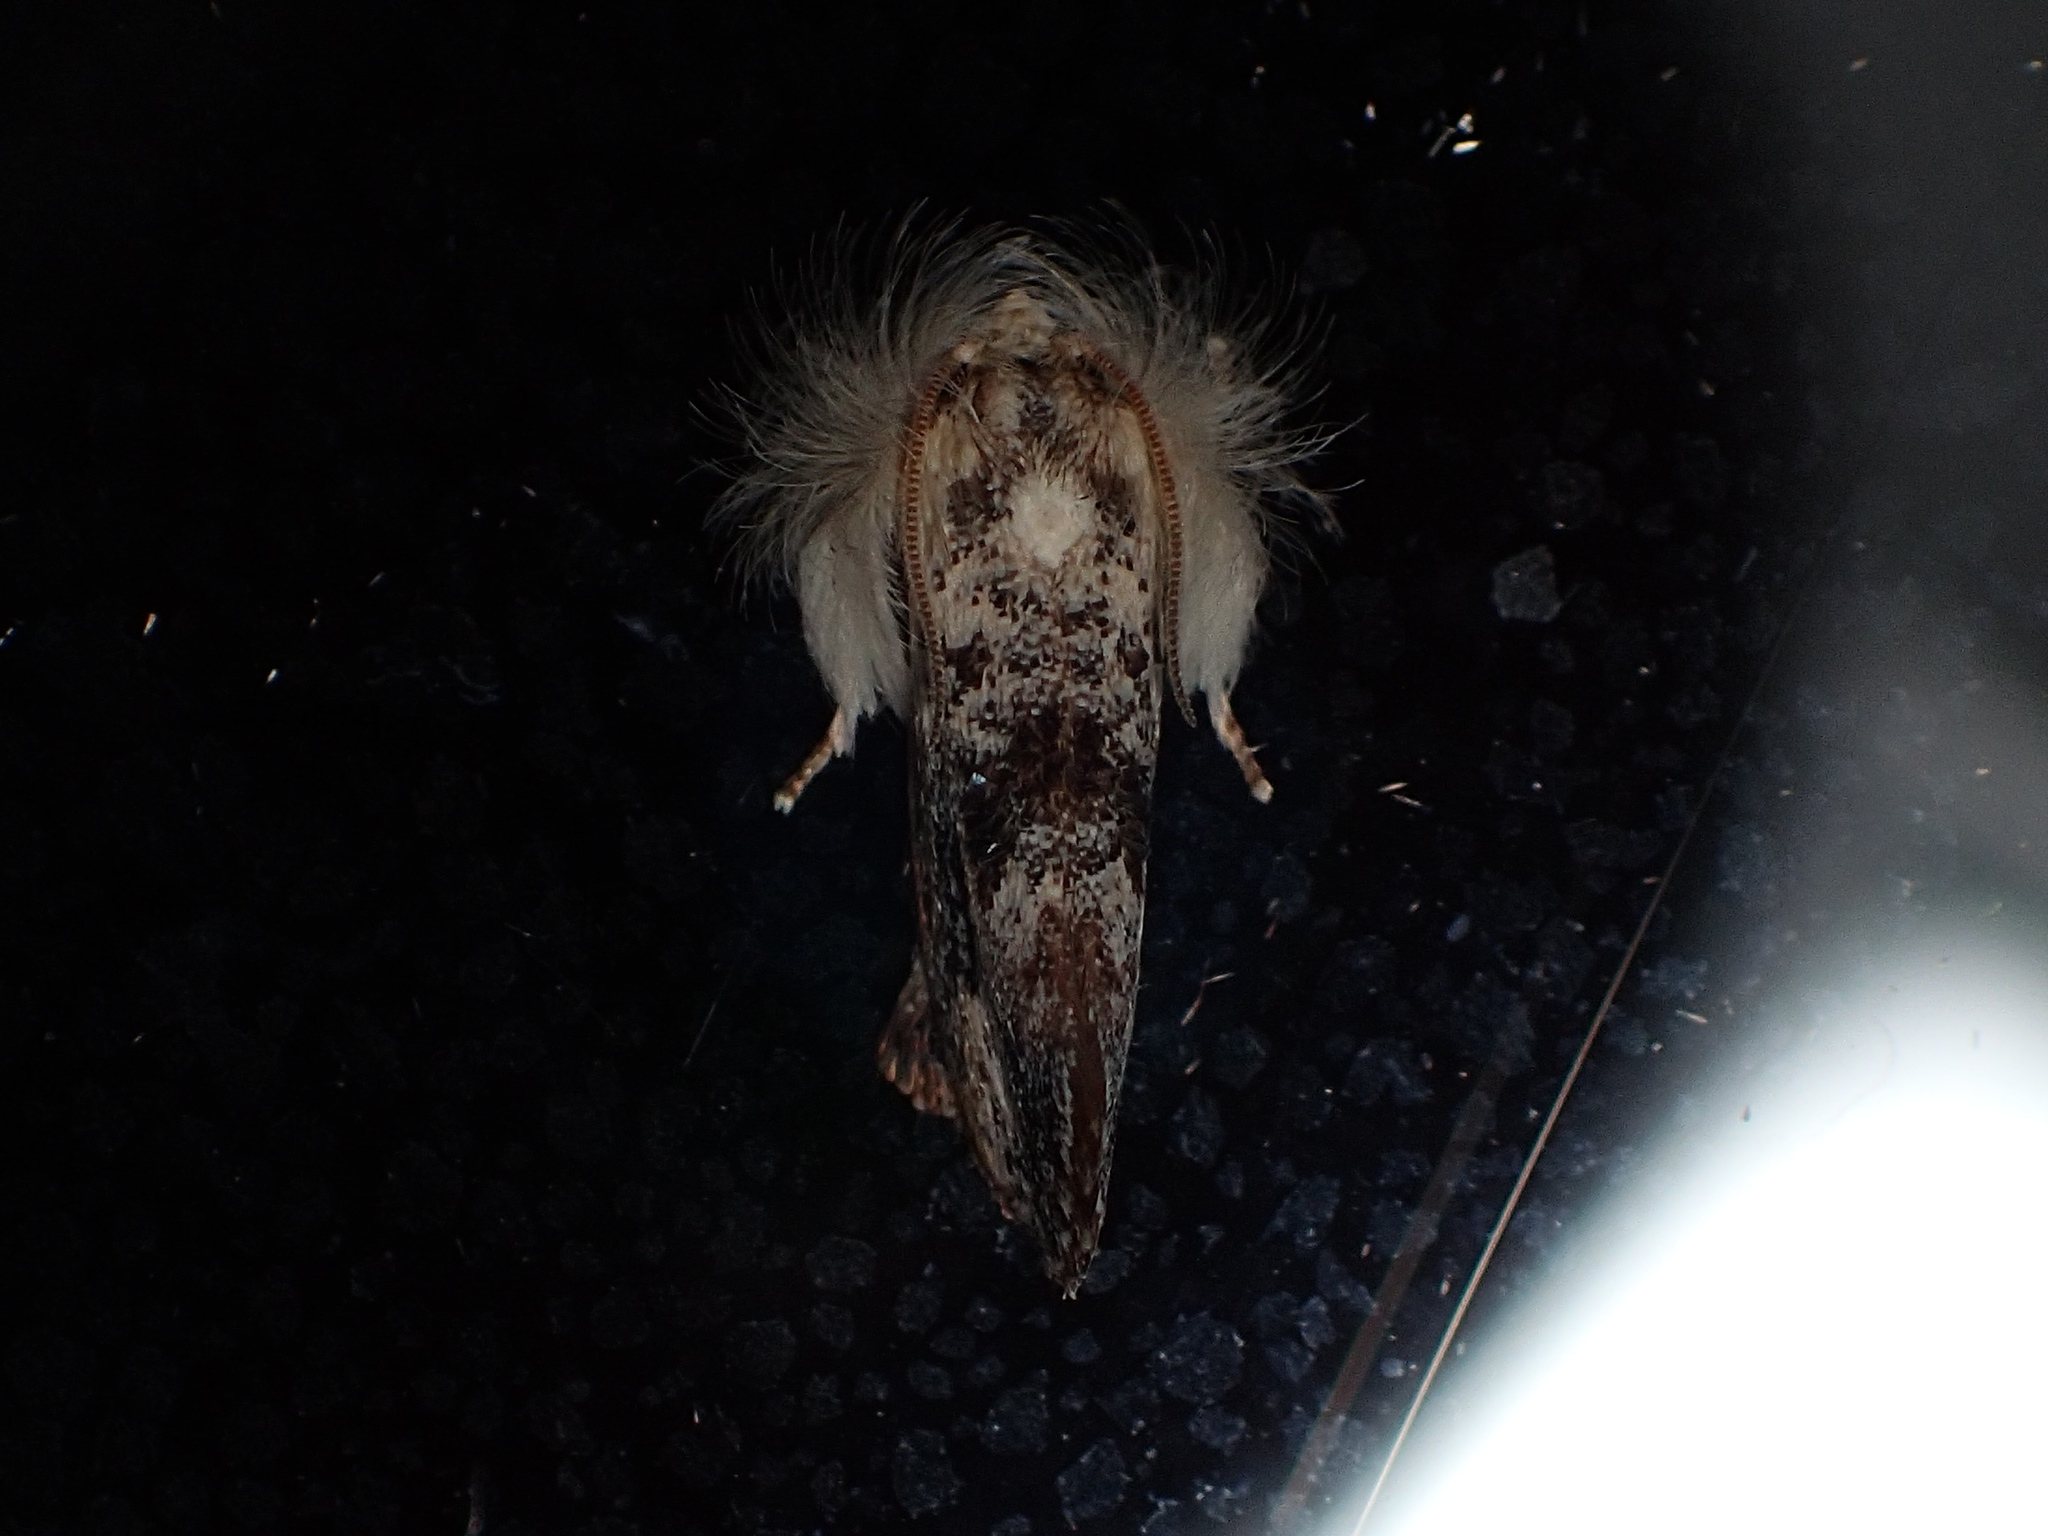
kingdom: Animalia
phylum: Arthropoda
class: Insecta
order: Lepidoptera
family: Tineidae
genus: Acrolophus
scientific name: Acrolophus mycetophagus
